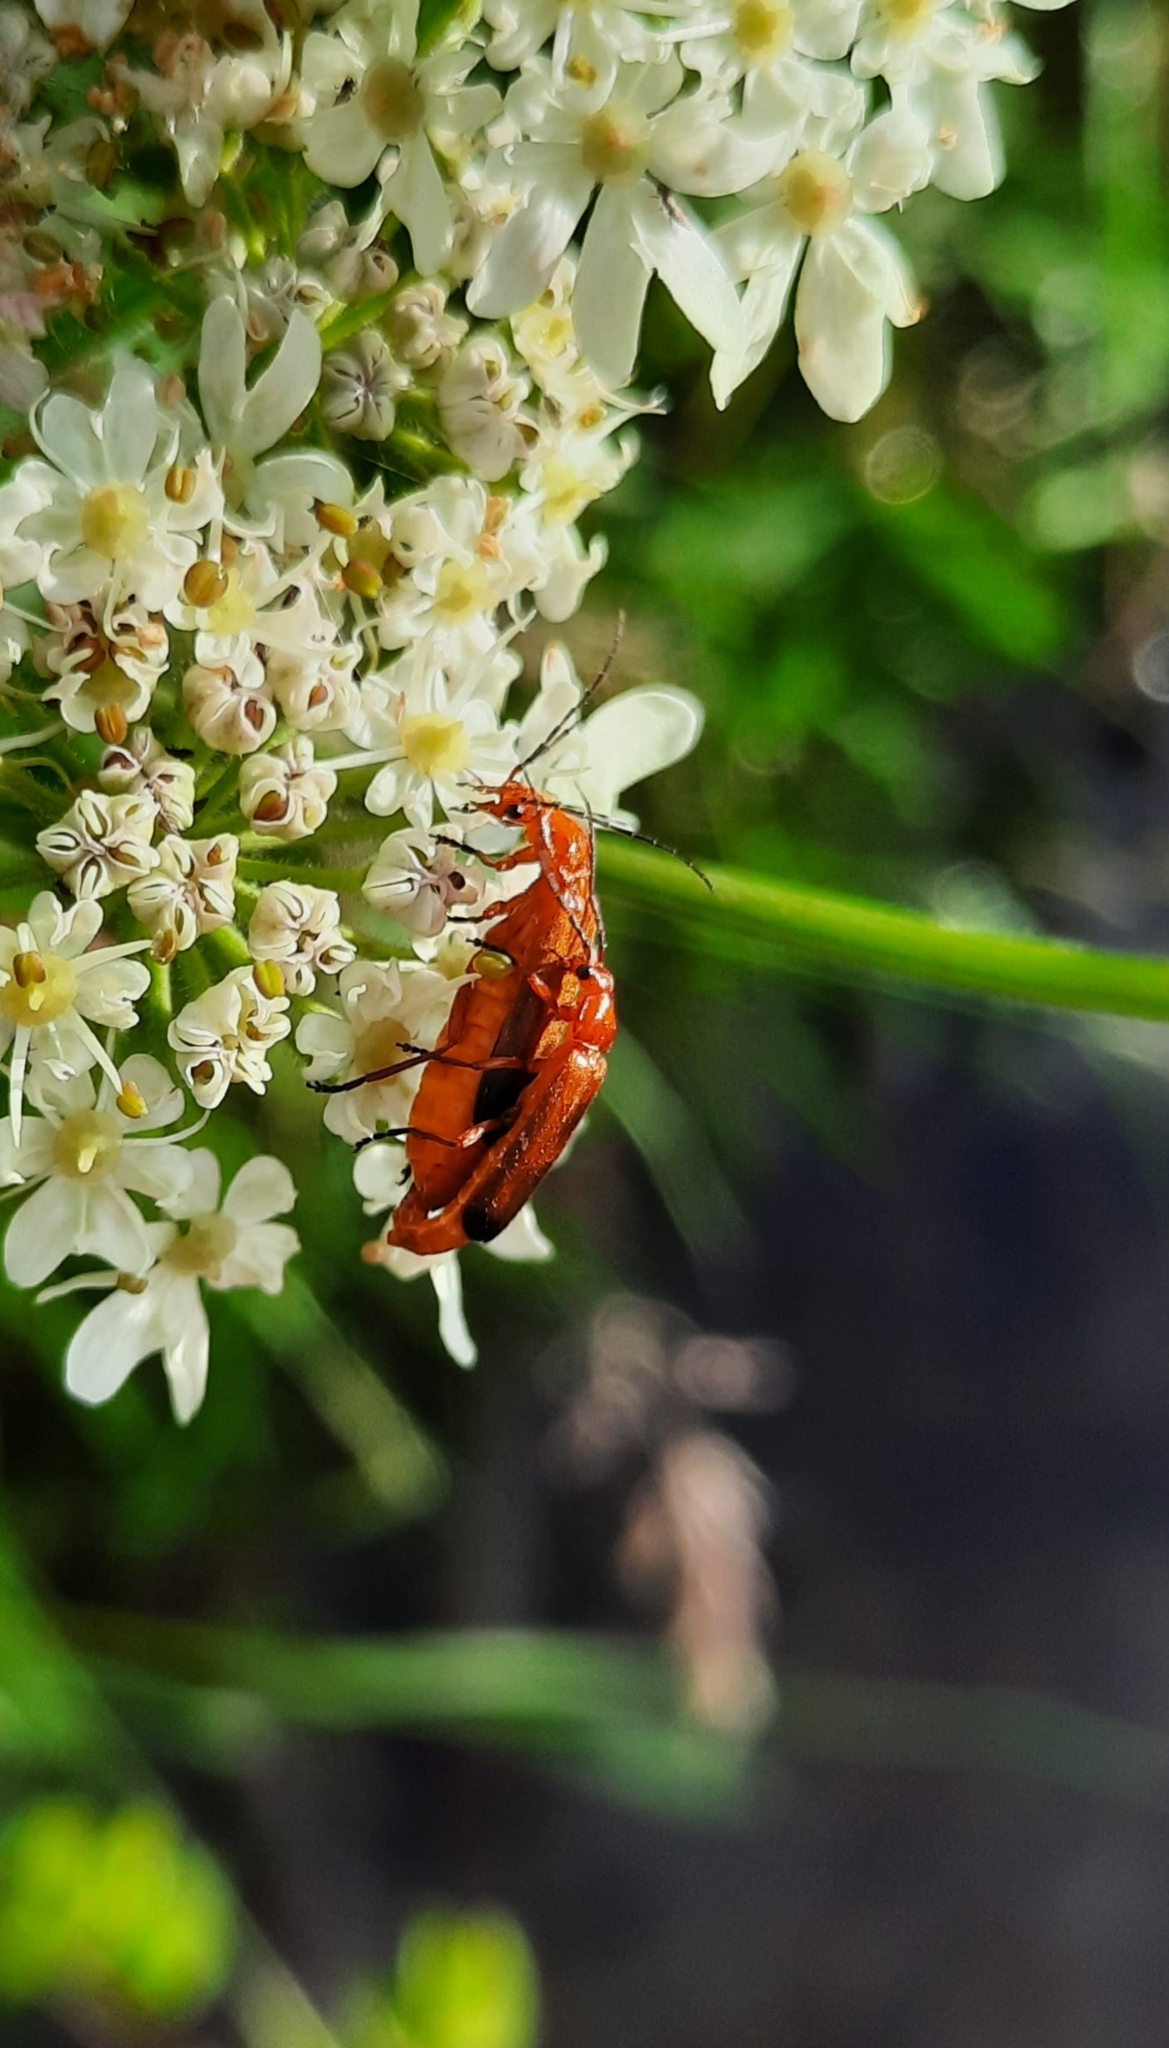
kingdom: Animalia
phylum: Arthropoda
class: Insecta
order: Coleoptera
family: Cantharidae
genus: Rhagonycha
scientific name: Rhagonycha fulva
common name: Common red soldier beetle
